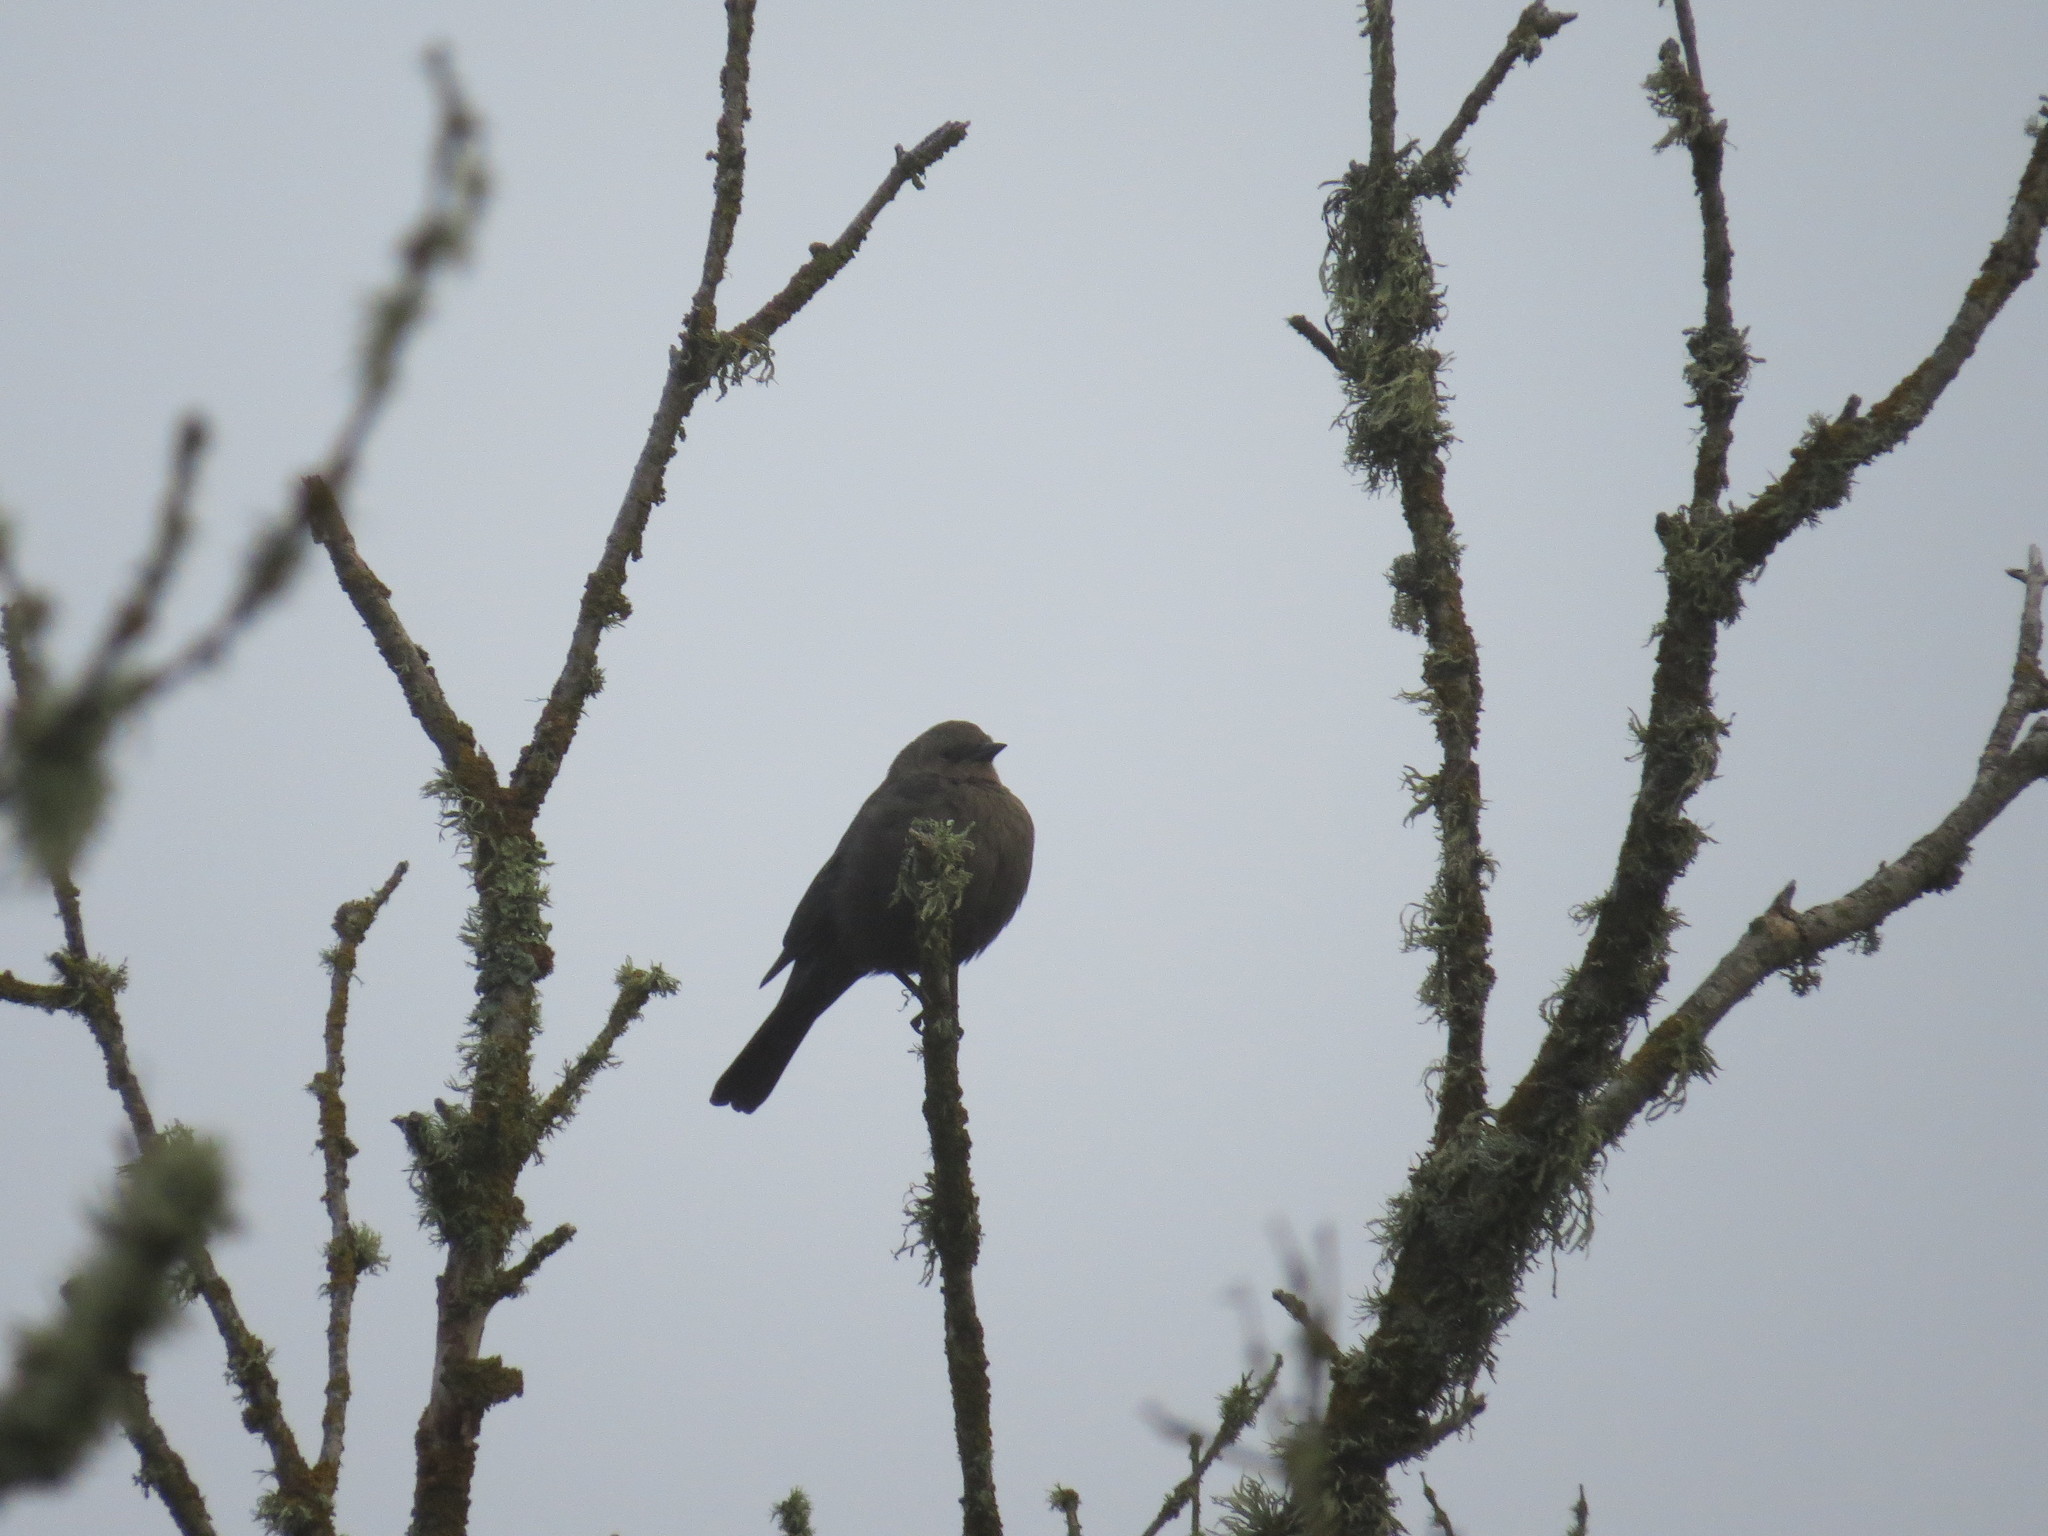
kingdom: Animalia
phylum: Chordata
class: Aves
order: Passeriformes
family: Icteridae
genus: Euphagus
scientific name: Euphagus cyanocephalus
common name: Brewer's blackbird
